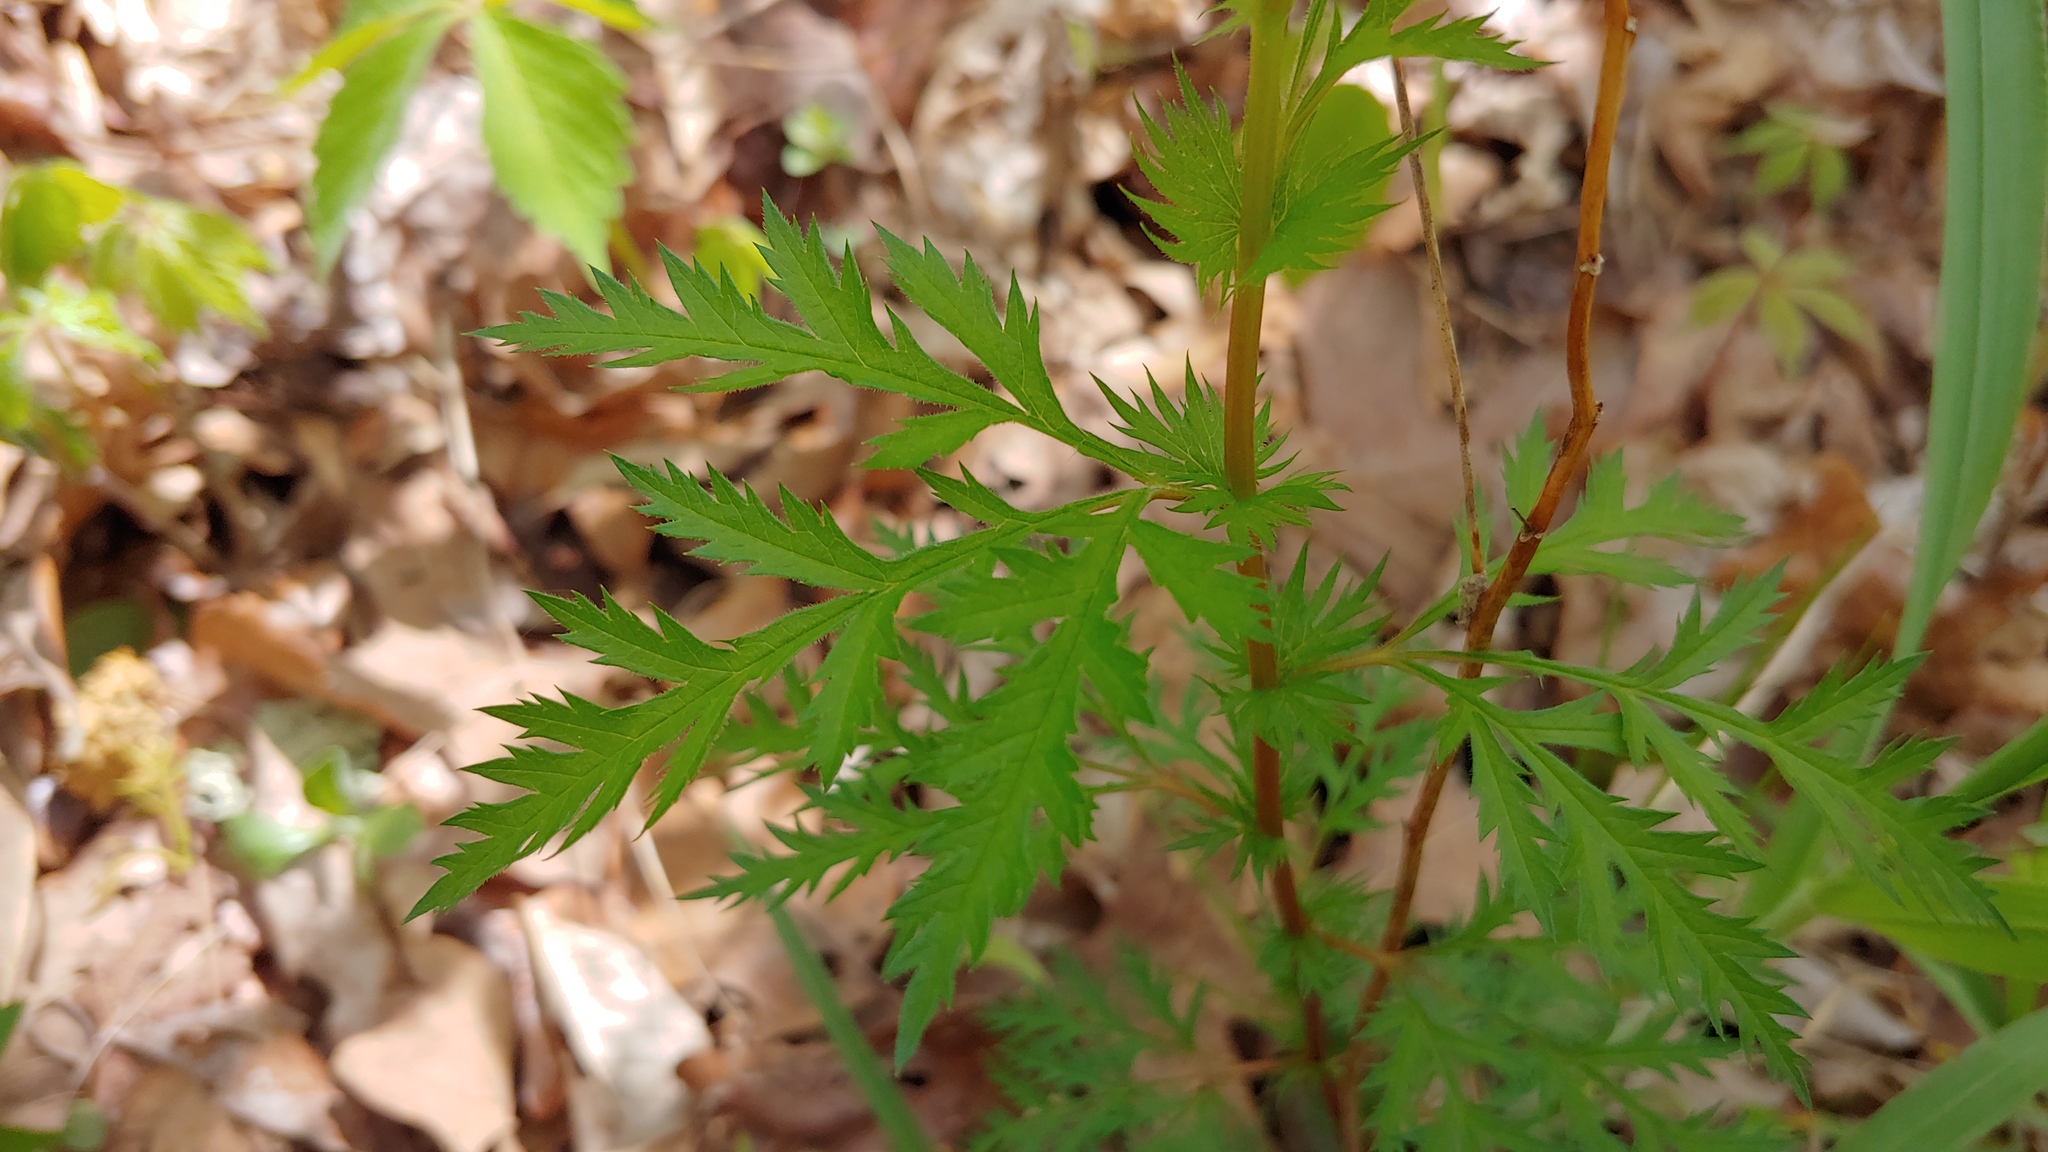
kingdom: Plantae
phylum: Tracheophyta
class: Magnoliopsida
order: Rosales
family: Rosaceae
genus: Gillenia
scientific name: Gillenia stipulata
